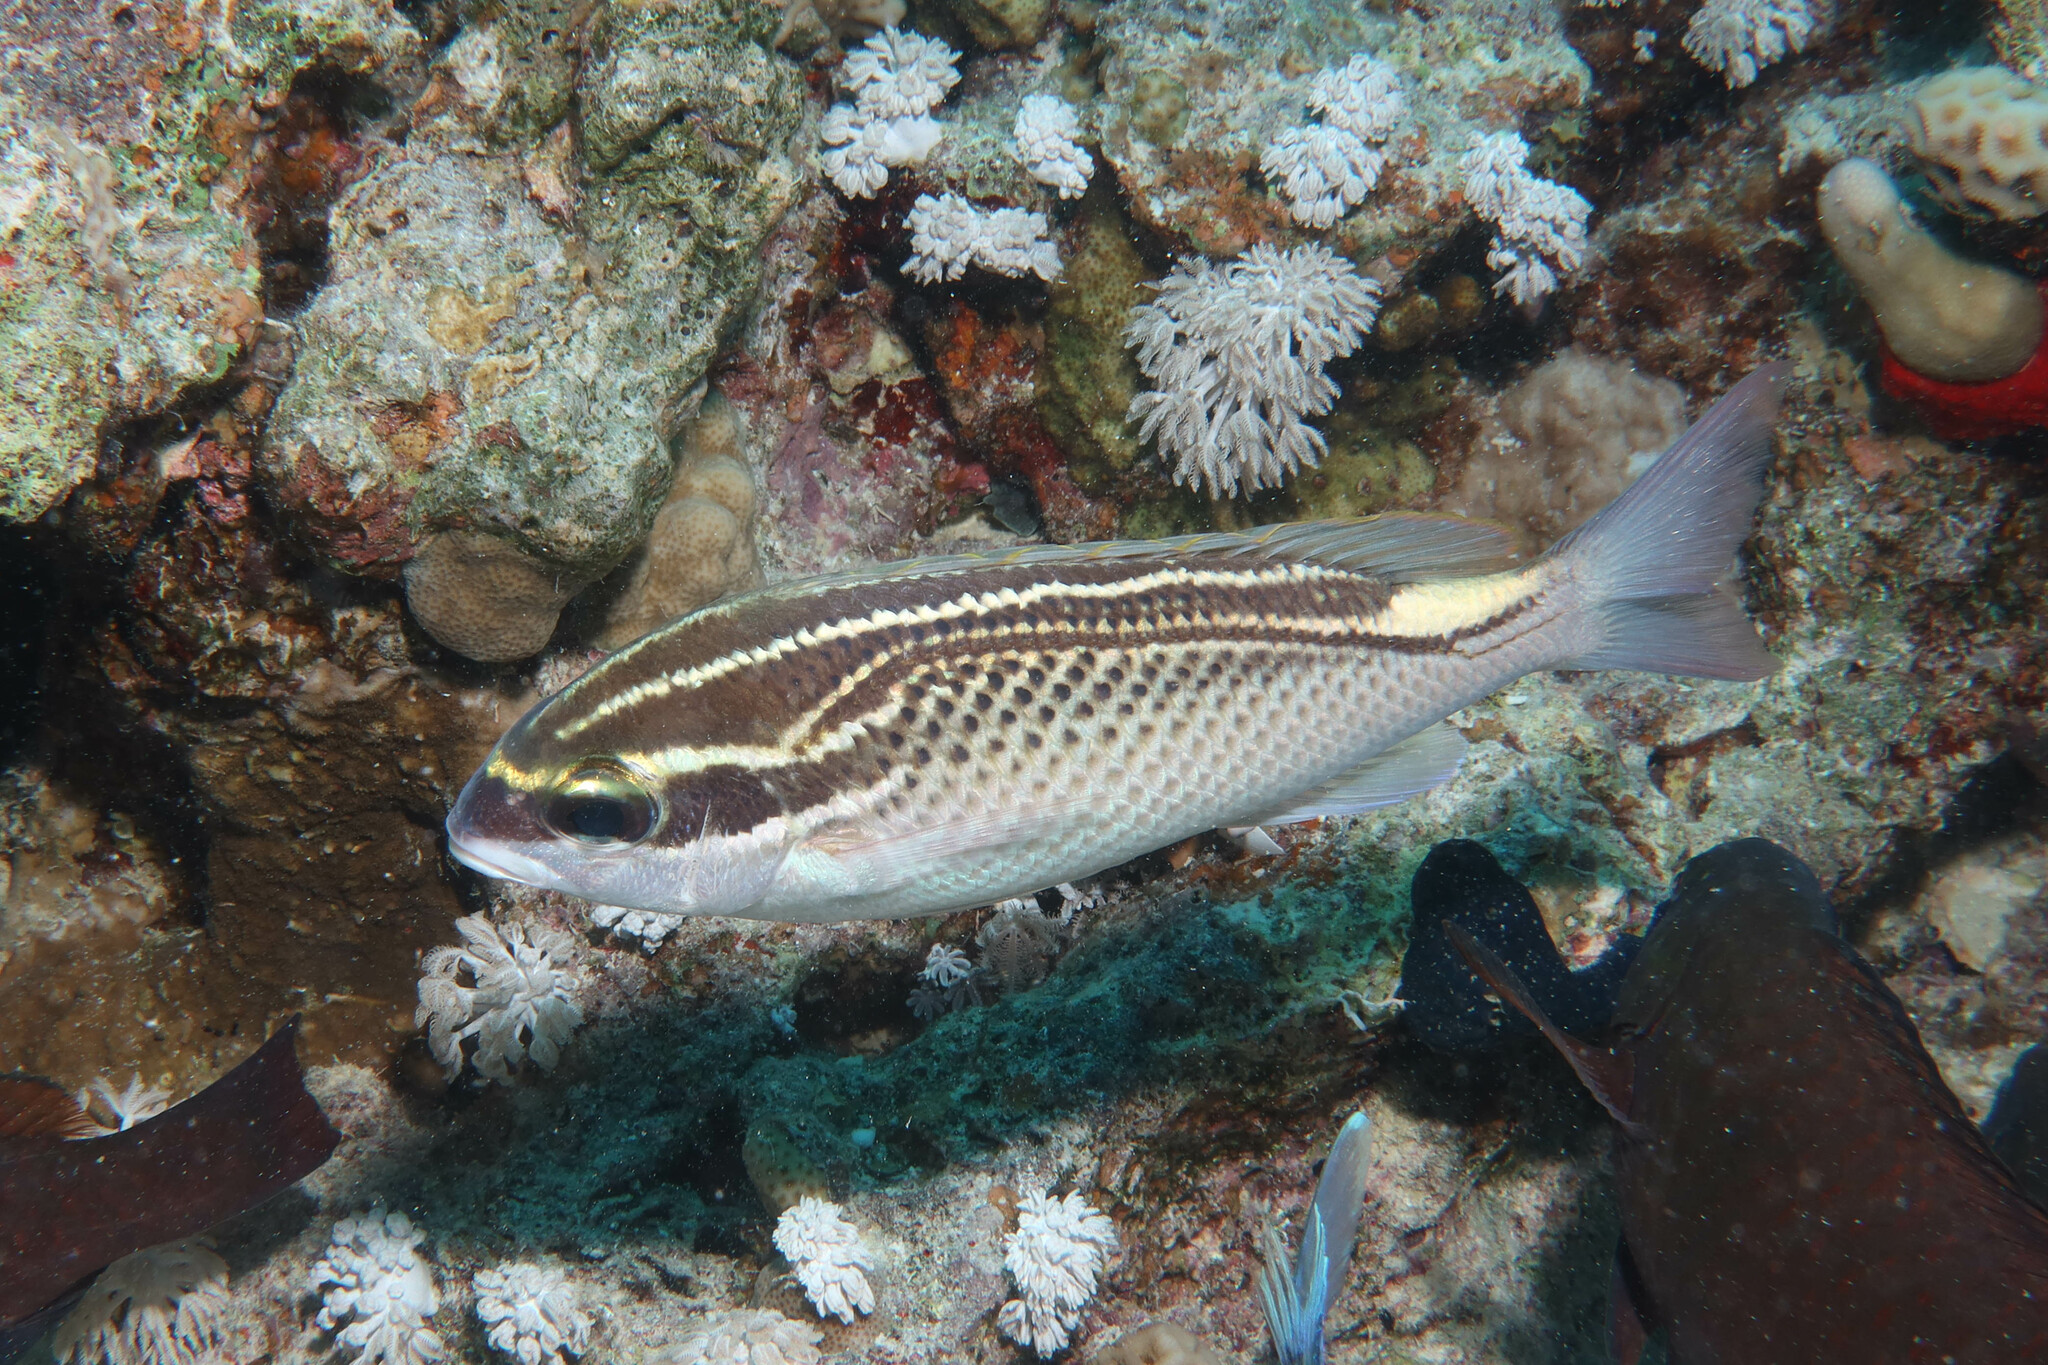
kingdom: Animalia
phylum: Chordata
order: Perciformes
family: Nemipteridae
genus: Scolopsis
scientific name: Scolopsis ghanam
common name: Arabian monocle bream
